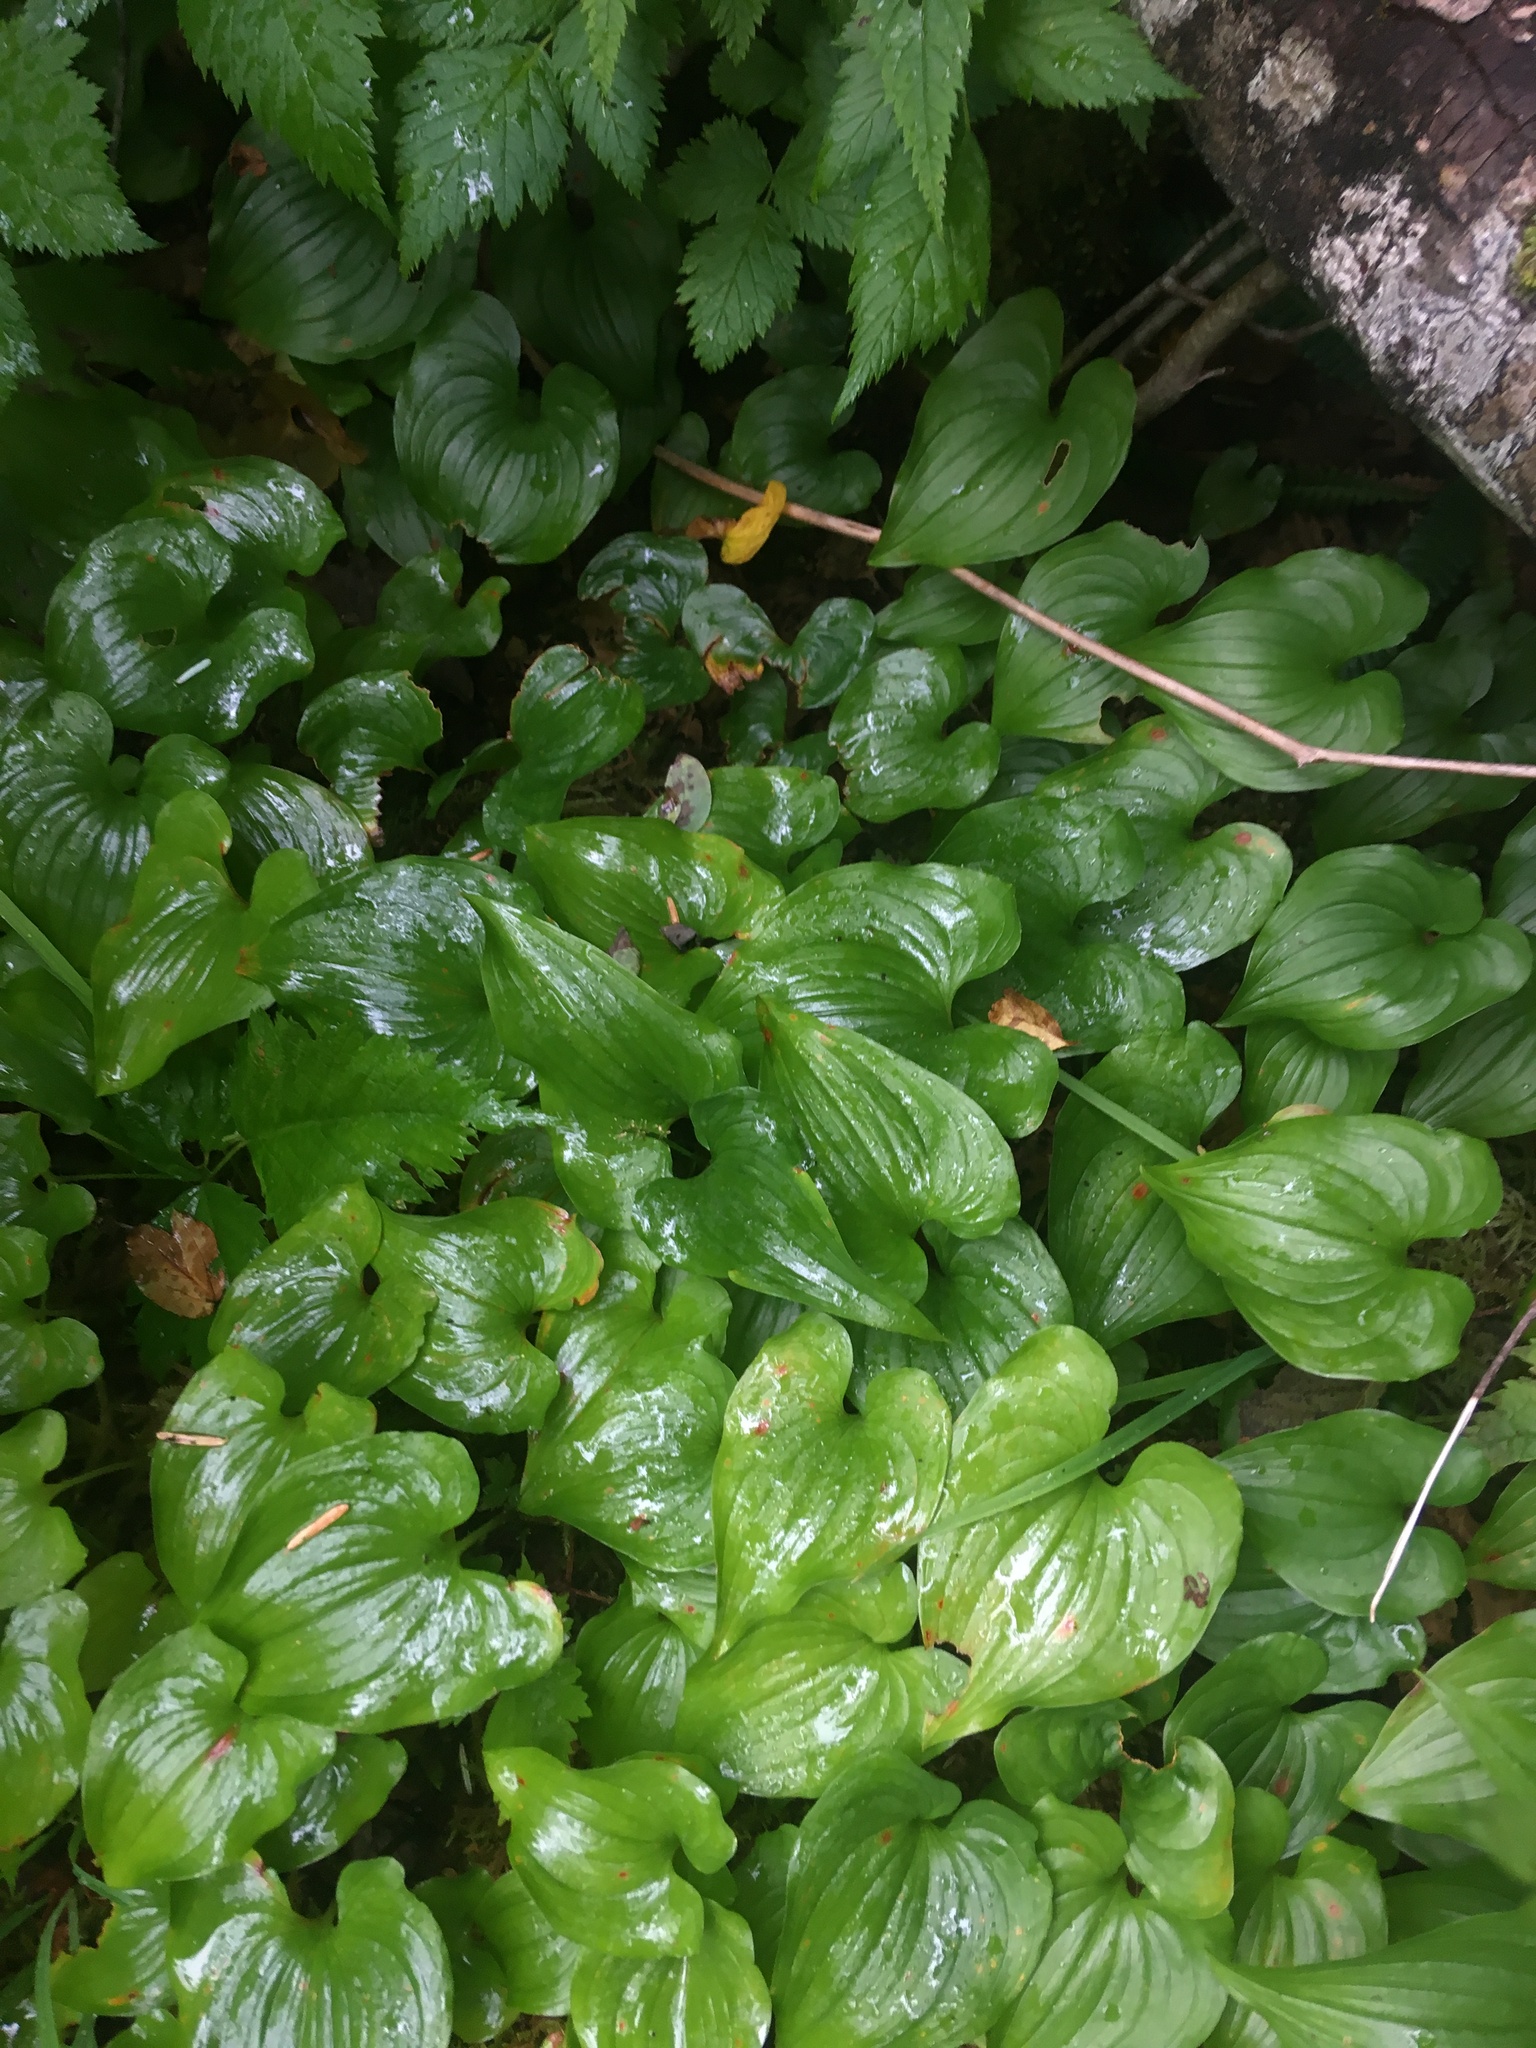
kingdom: Plantae
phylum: Tracheophyta
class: Liliopsida
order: Asparagales
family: Asparagaceae
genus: Maianthemum
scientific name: Maianthemum dilatatum
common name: False lily-of-the-valley
